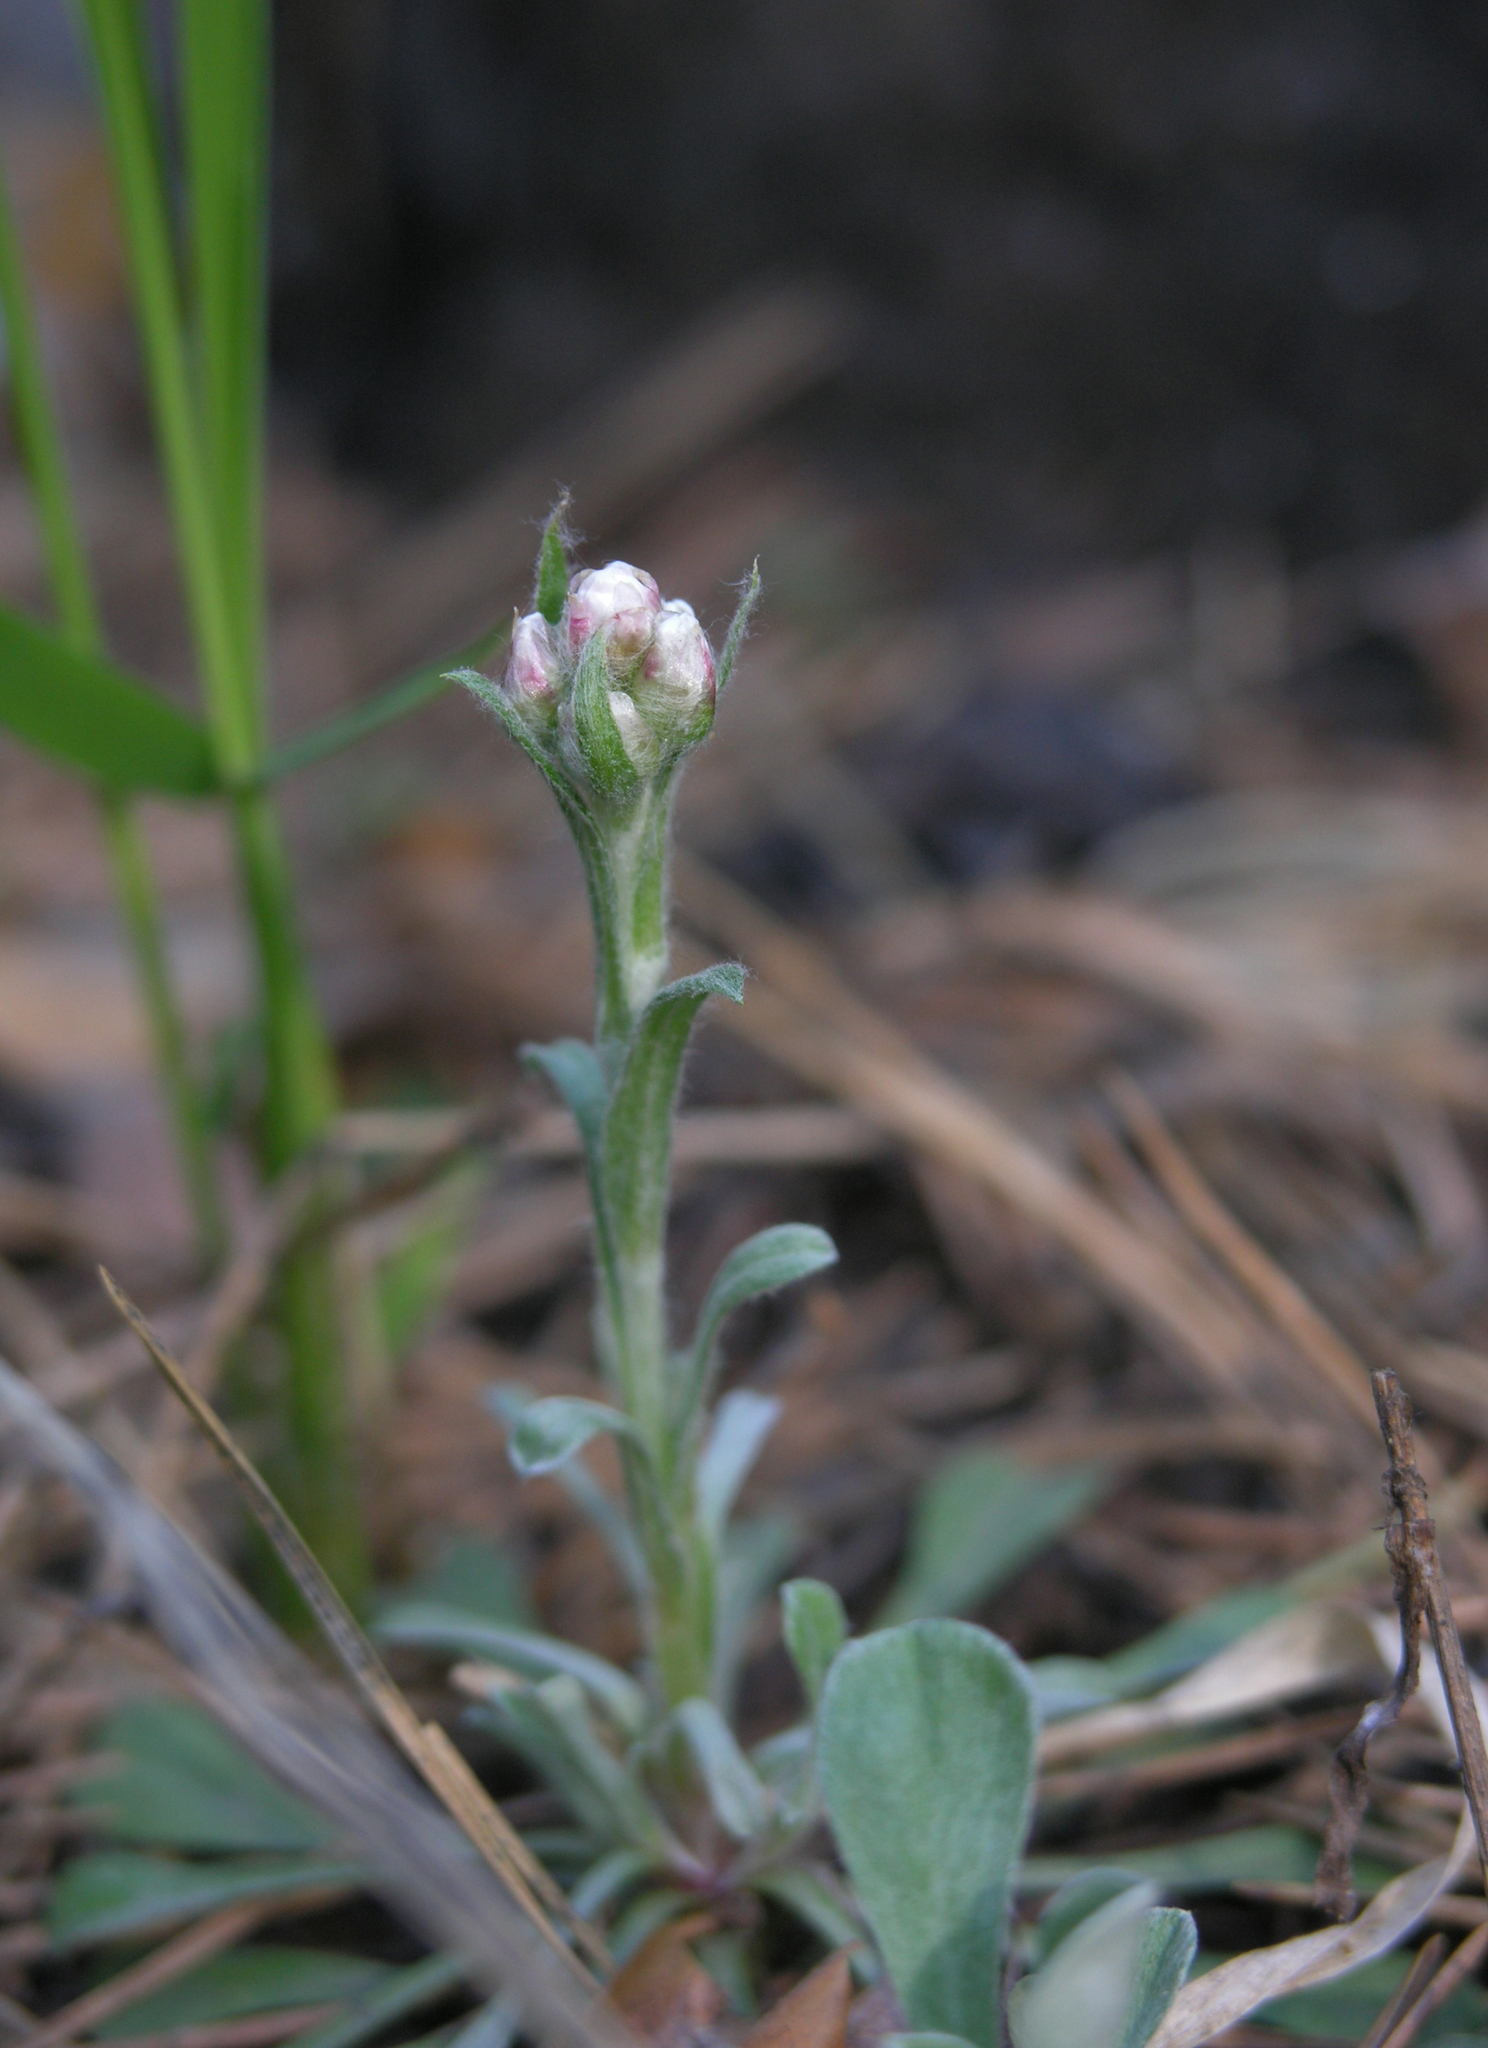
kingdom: Plantae
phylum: Tracheophyta
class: Magnoliopsida
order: Asterales
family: Asteraceae
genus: Antennaria
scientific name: Antennaria dioica
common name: Mountain everlasting
